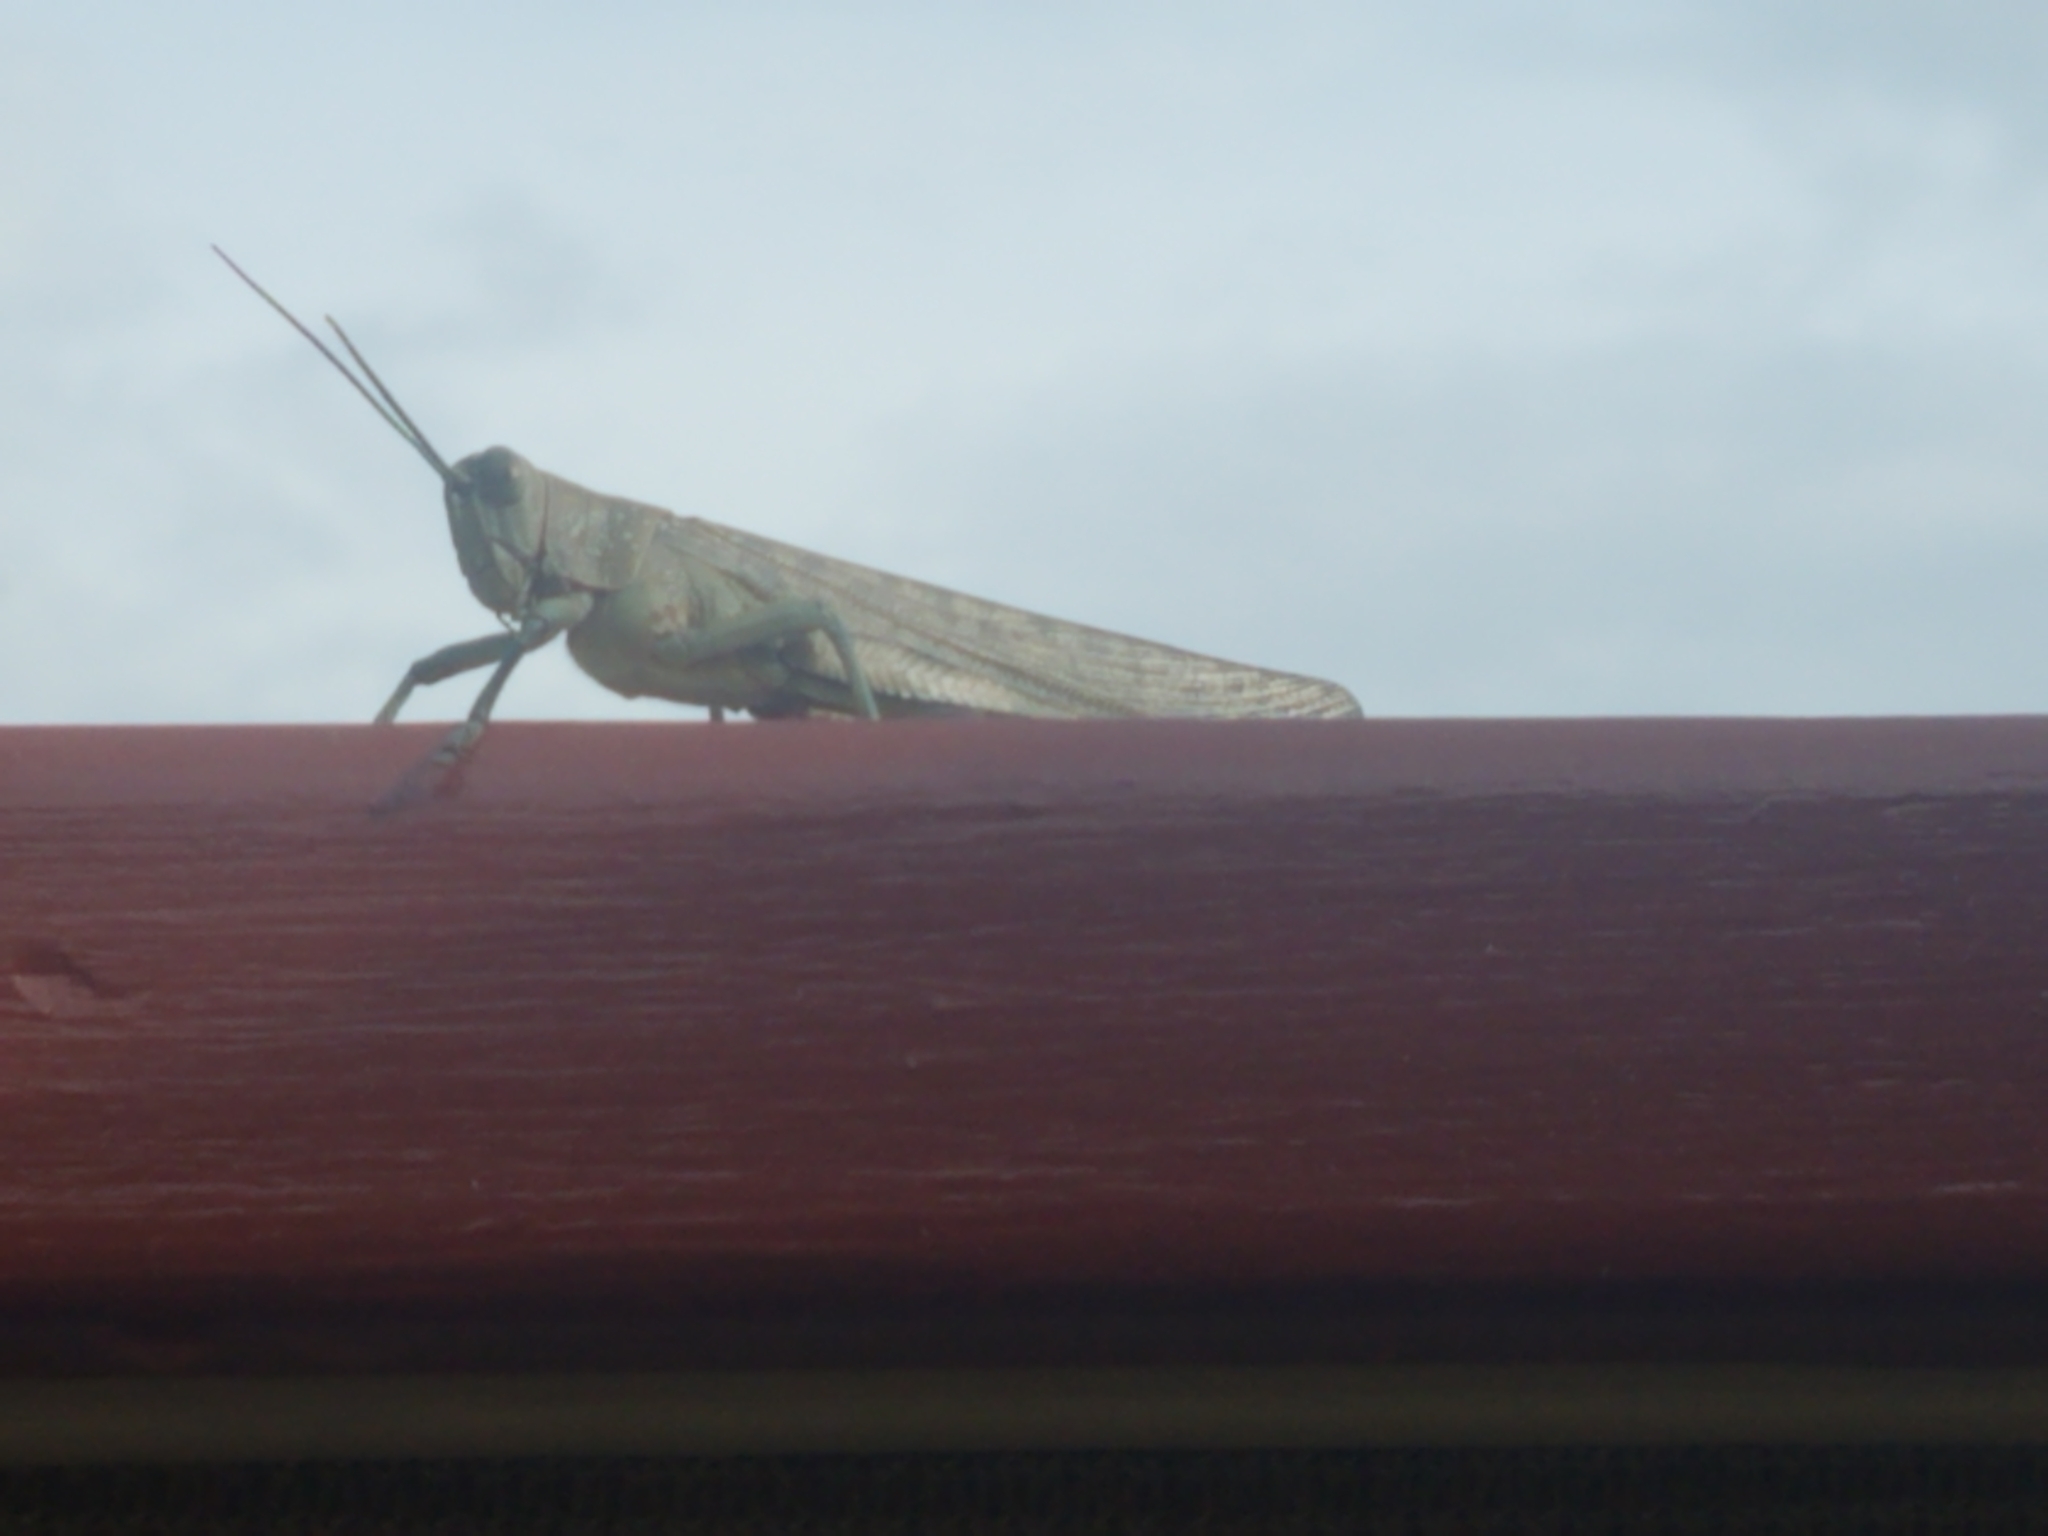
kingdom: Animalia
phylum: Arthropoda
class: Insecta
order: Orthoptera
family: Acrididae
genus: Valanga
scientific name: Valanga irregularis
